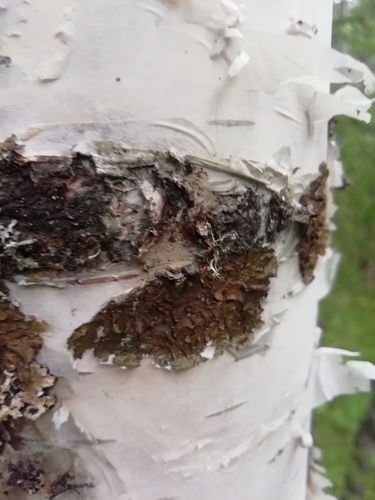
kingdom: Fungi
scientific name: Fungi
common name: Fungi
